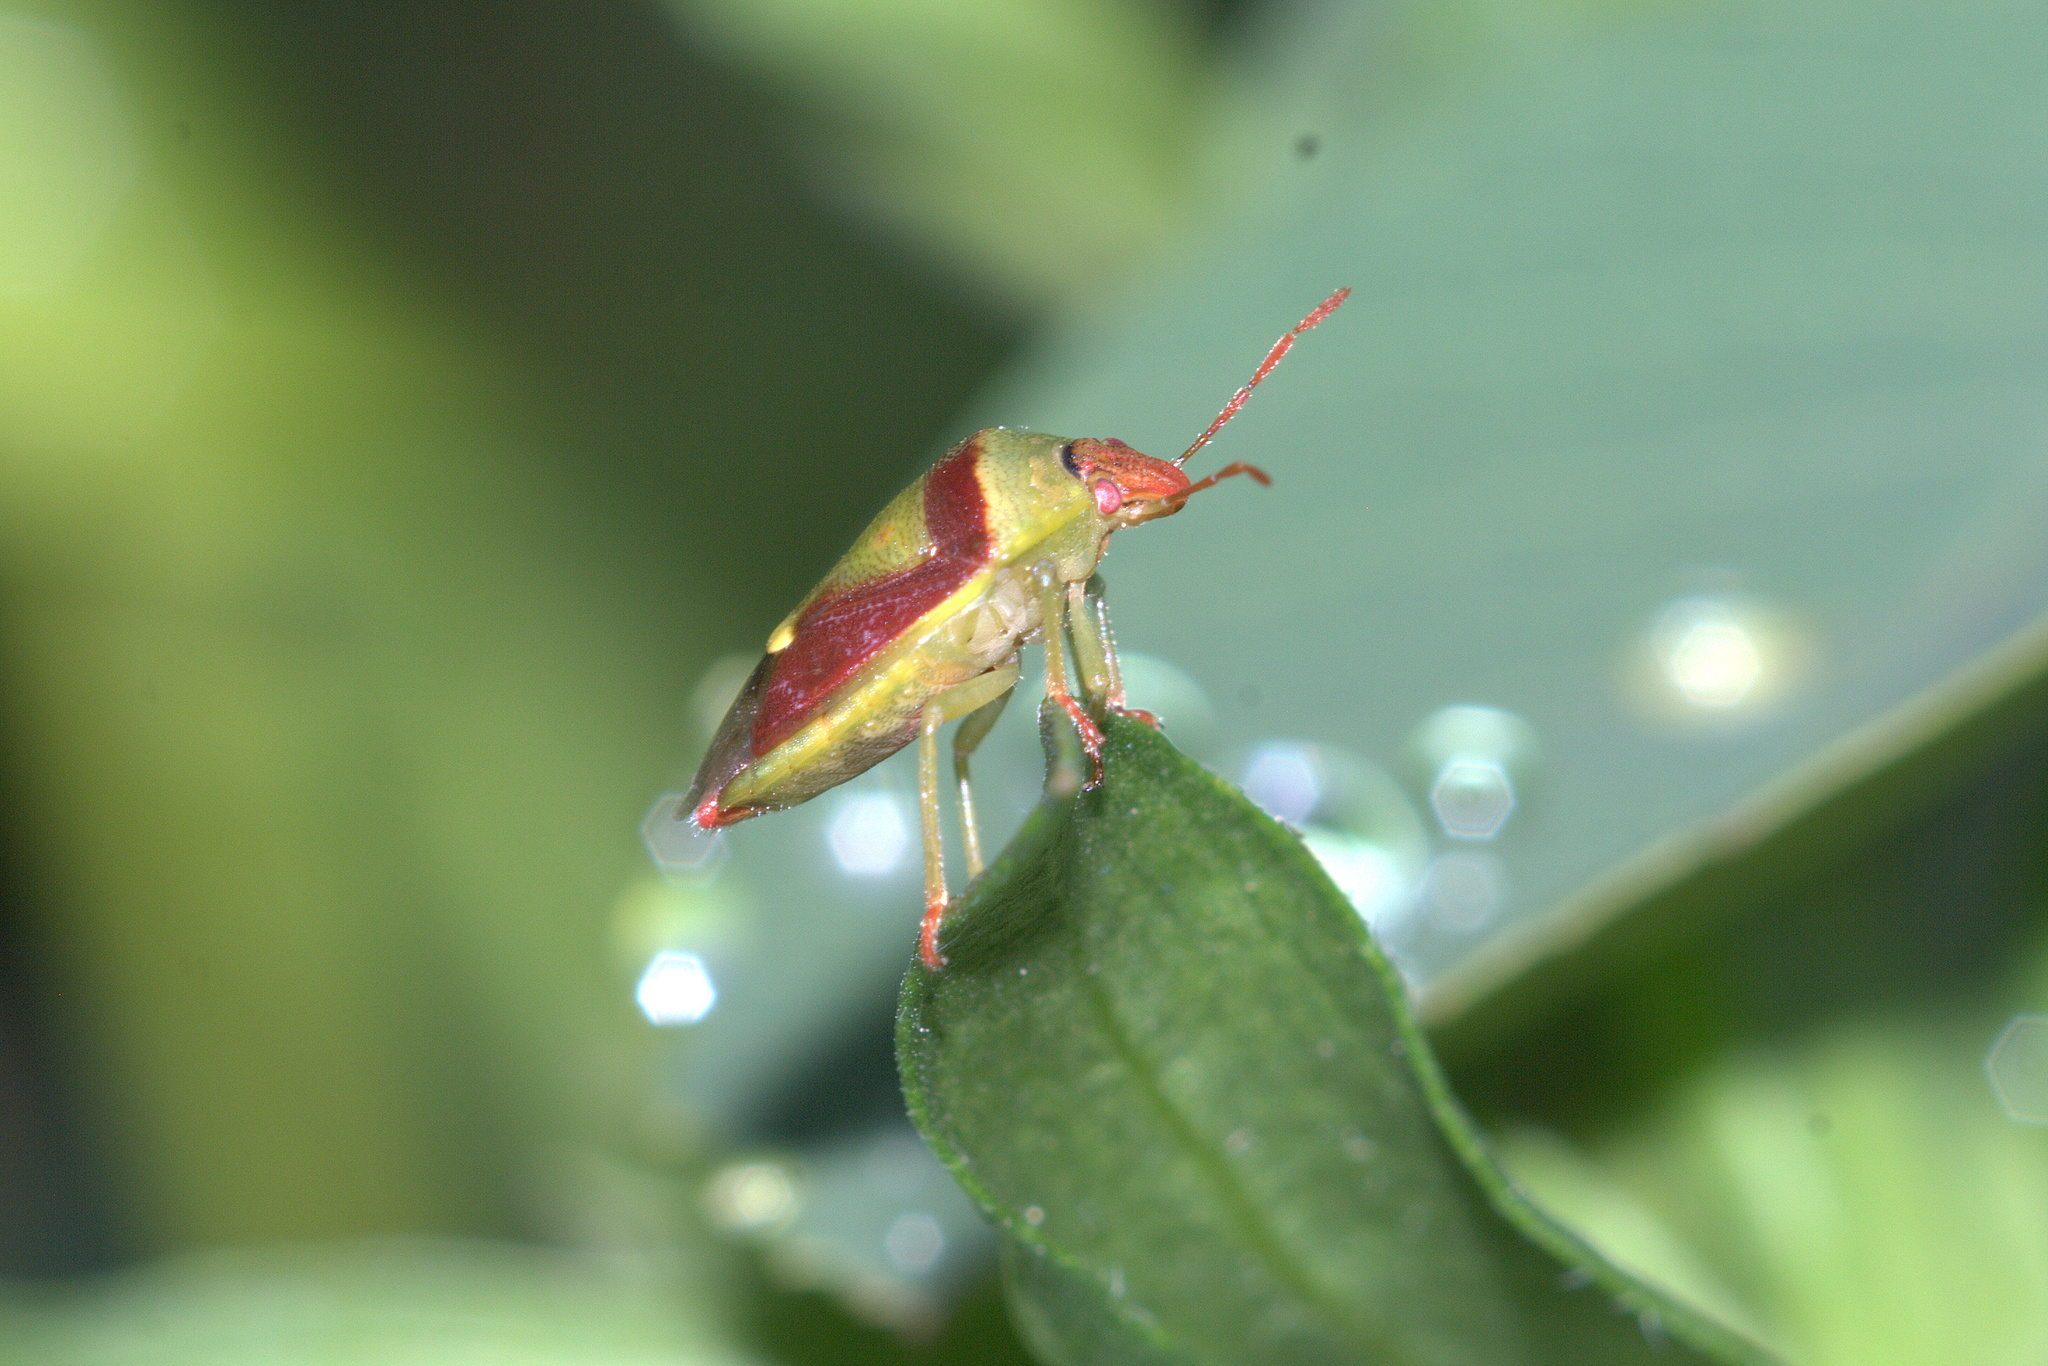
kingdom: Animalia
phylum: Arthropoda
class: Insecta
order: Hemiptera
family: Pentatomidae
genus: Banasa
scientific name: Banasa dimidiata
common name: Green burgundy stink bug
